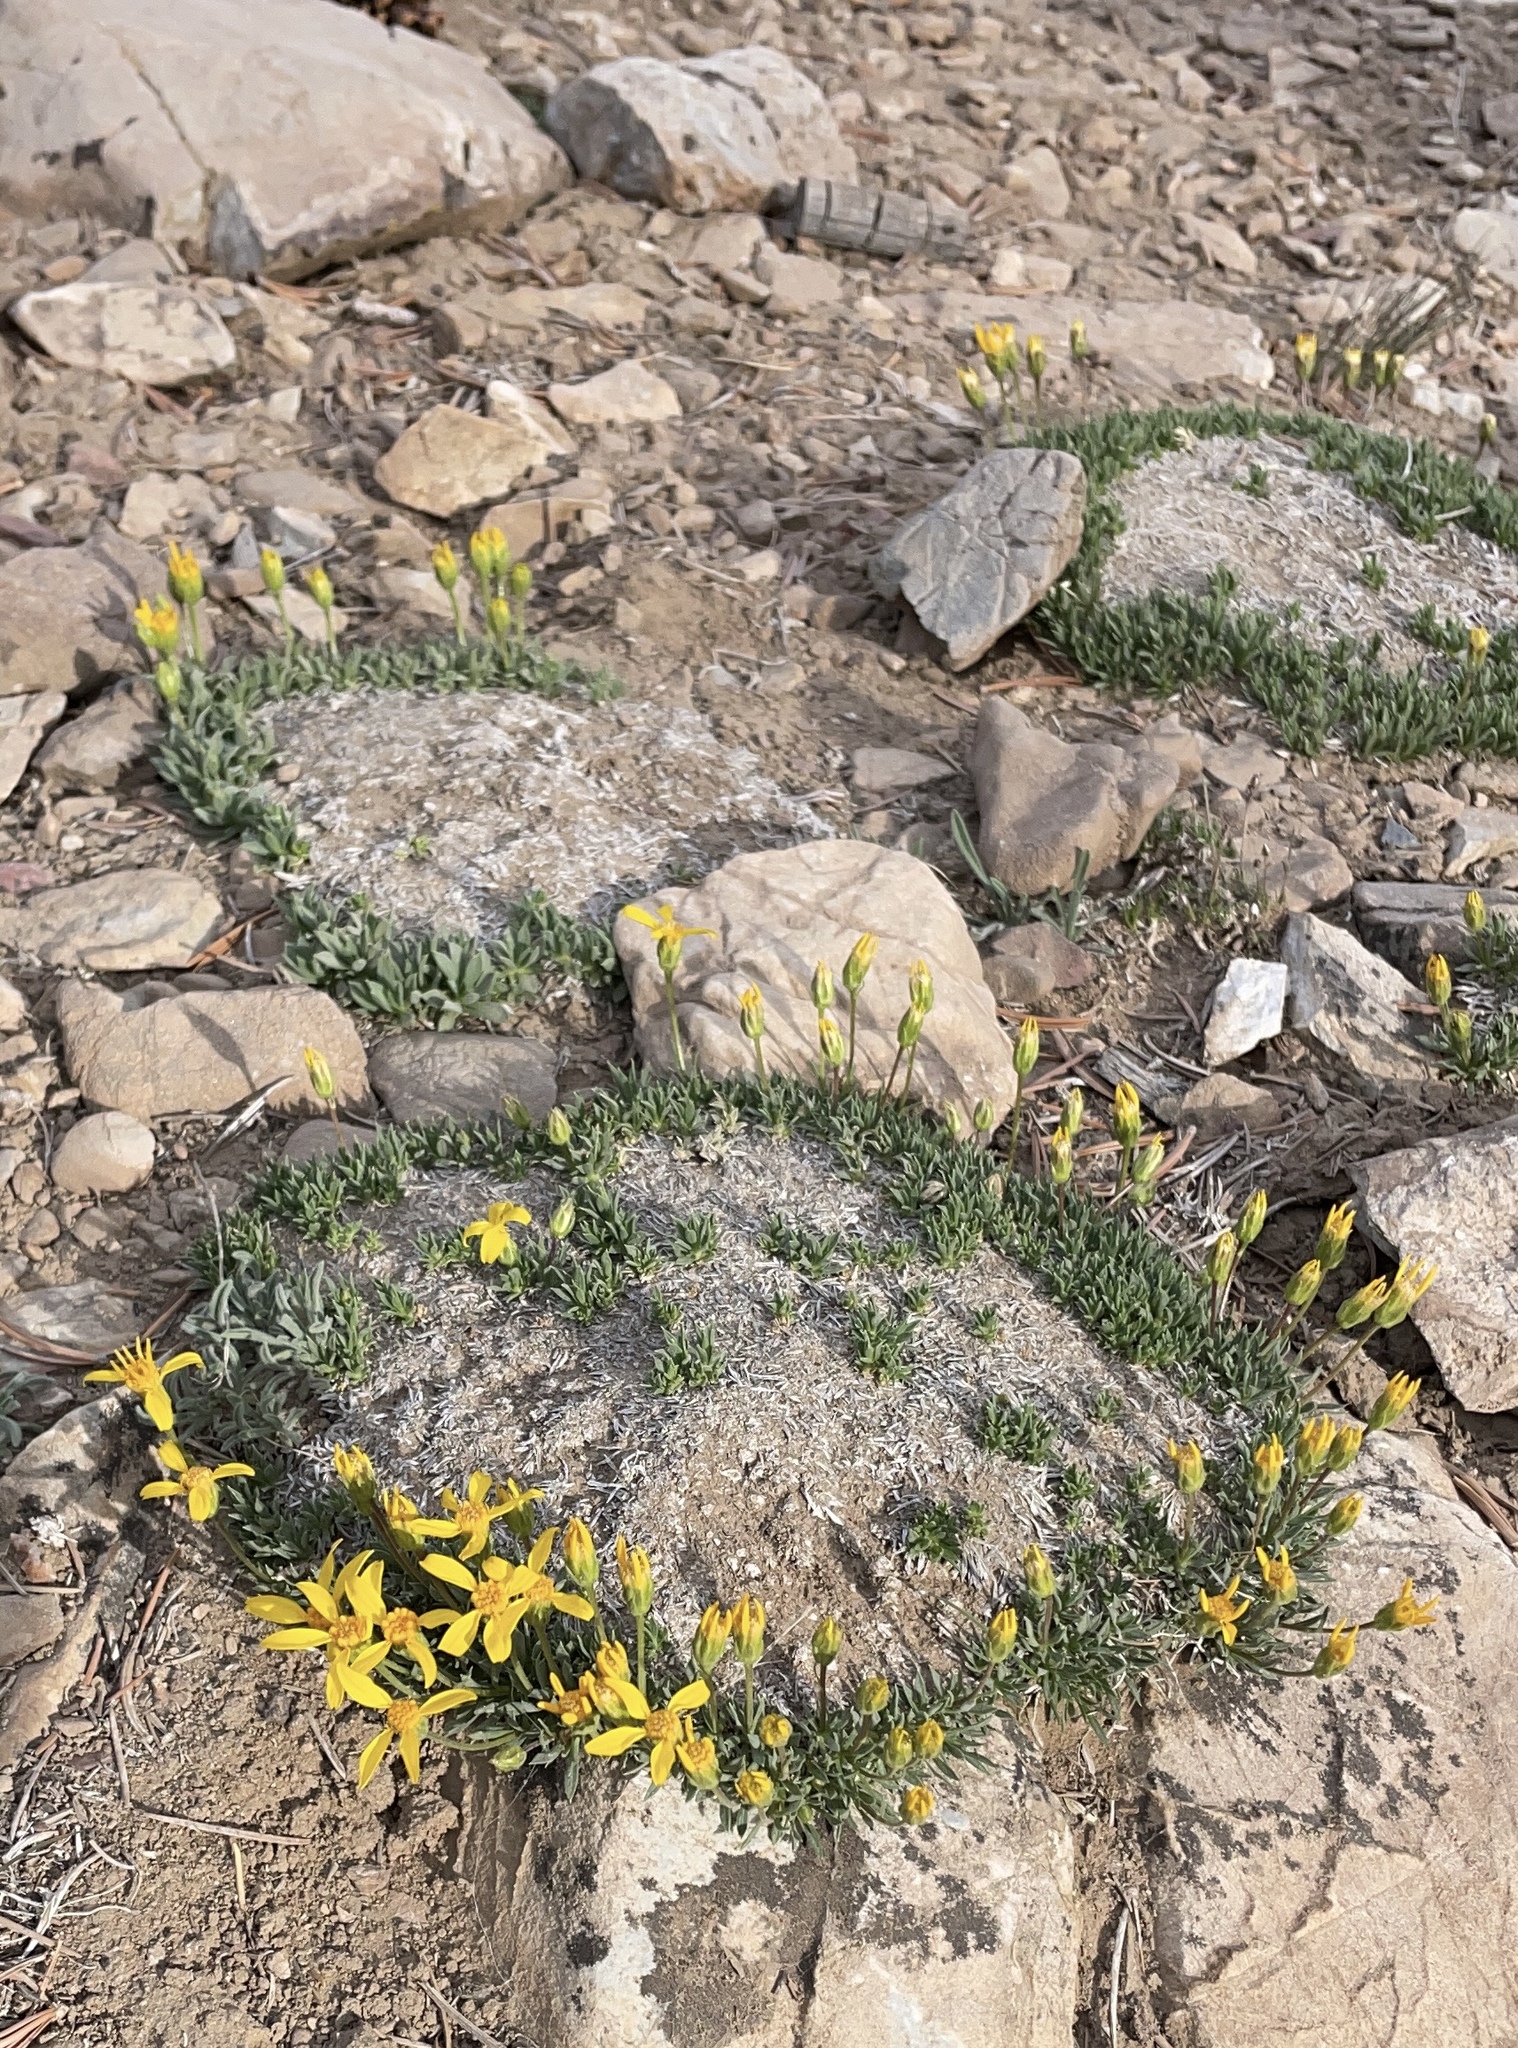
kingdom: Plantae
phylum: Tracheophyta
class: Magnoliopsida
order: Asterales
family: Asteraceae
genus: Stenotus
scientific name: Stenotus acaulis
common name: Stemless goldenweed
